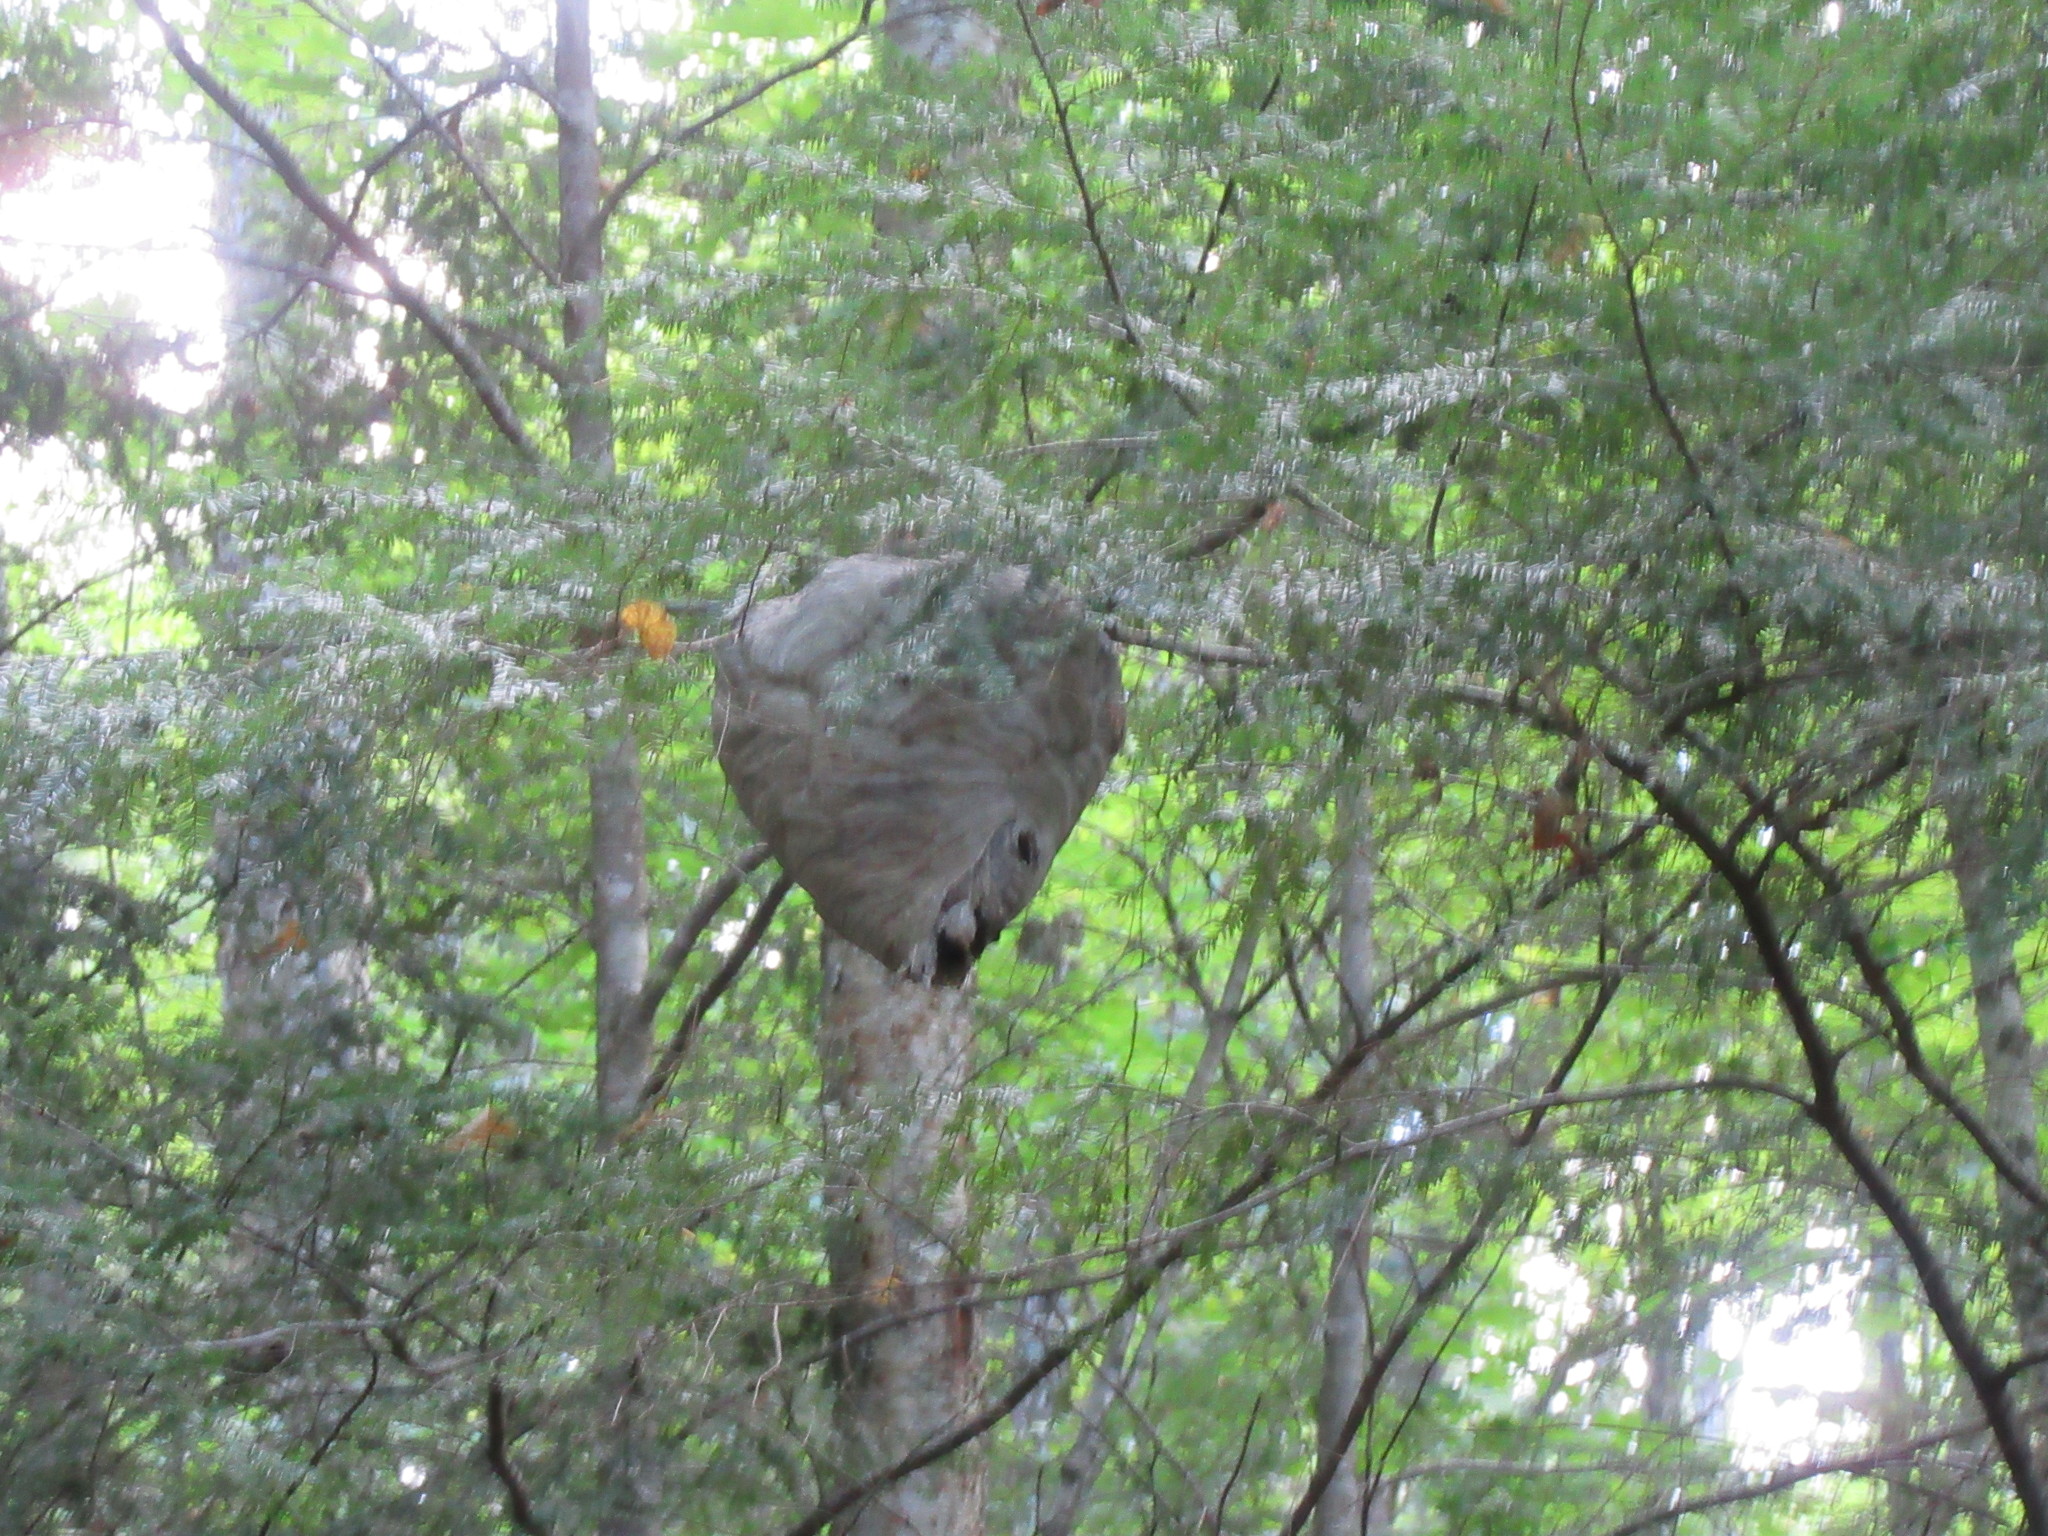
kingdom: Animalia
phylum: Arthropoda
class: Insecta
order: Hymenoptera
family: Vespidae
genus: Dolichovespula
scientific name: Dolichovespula
